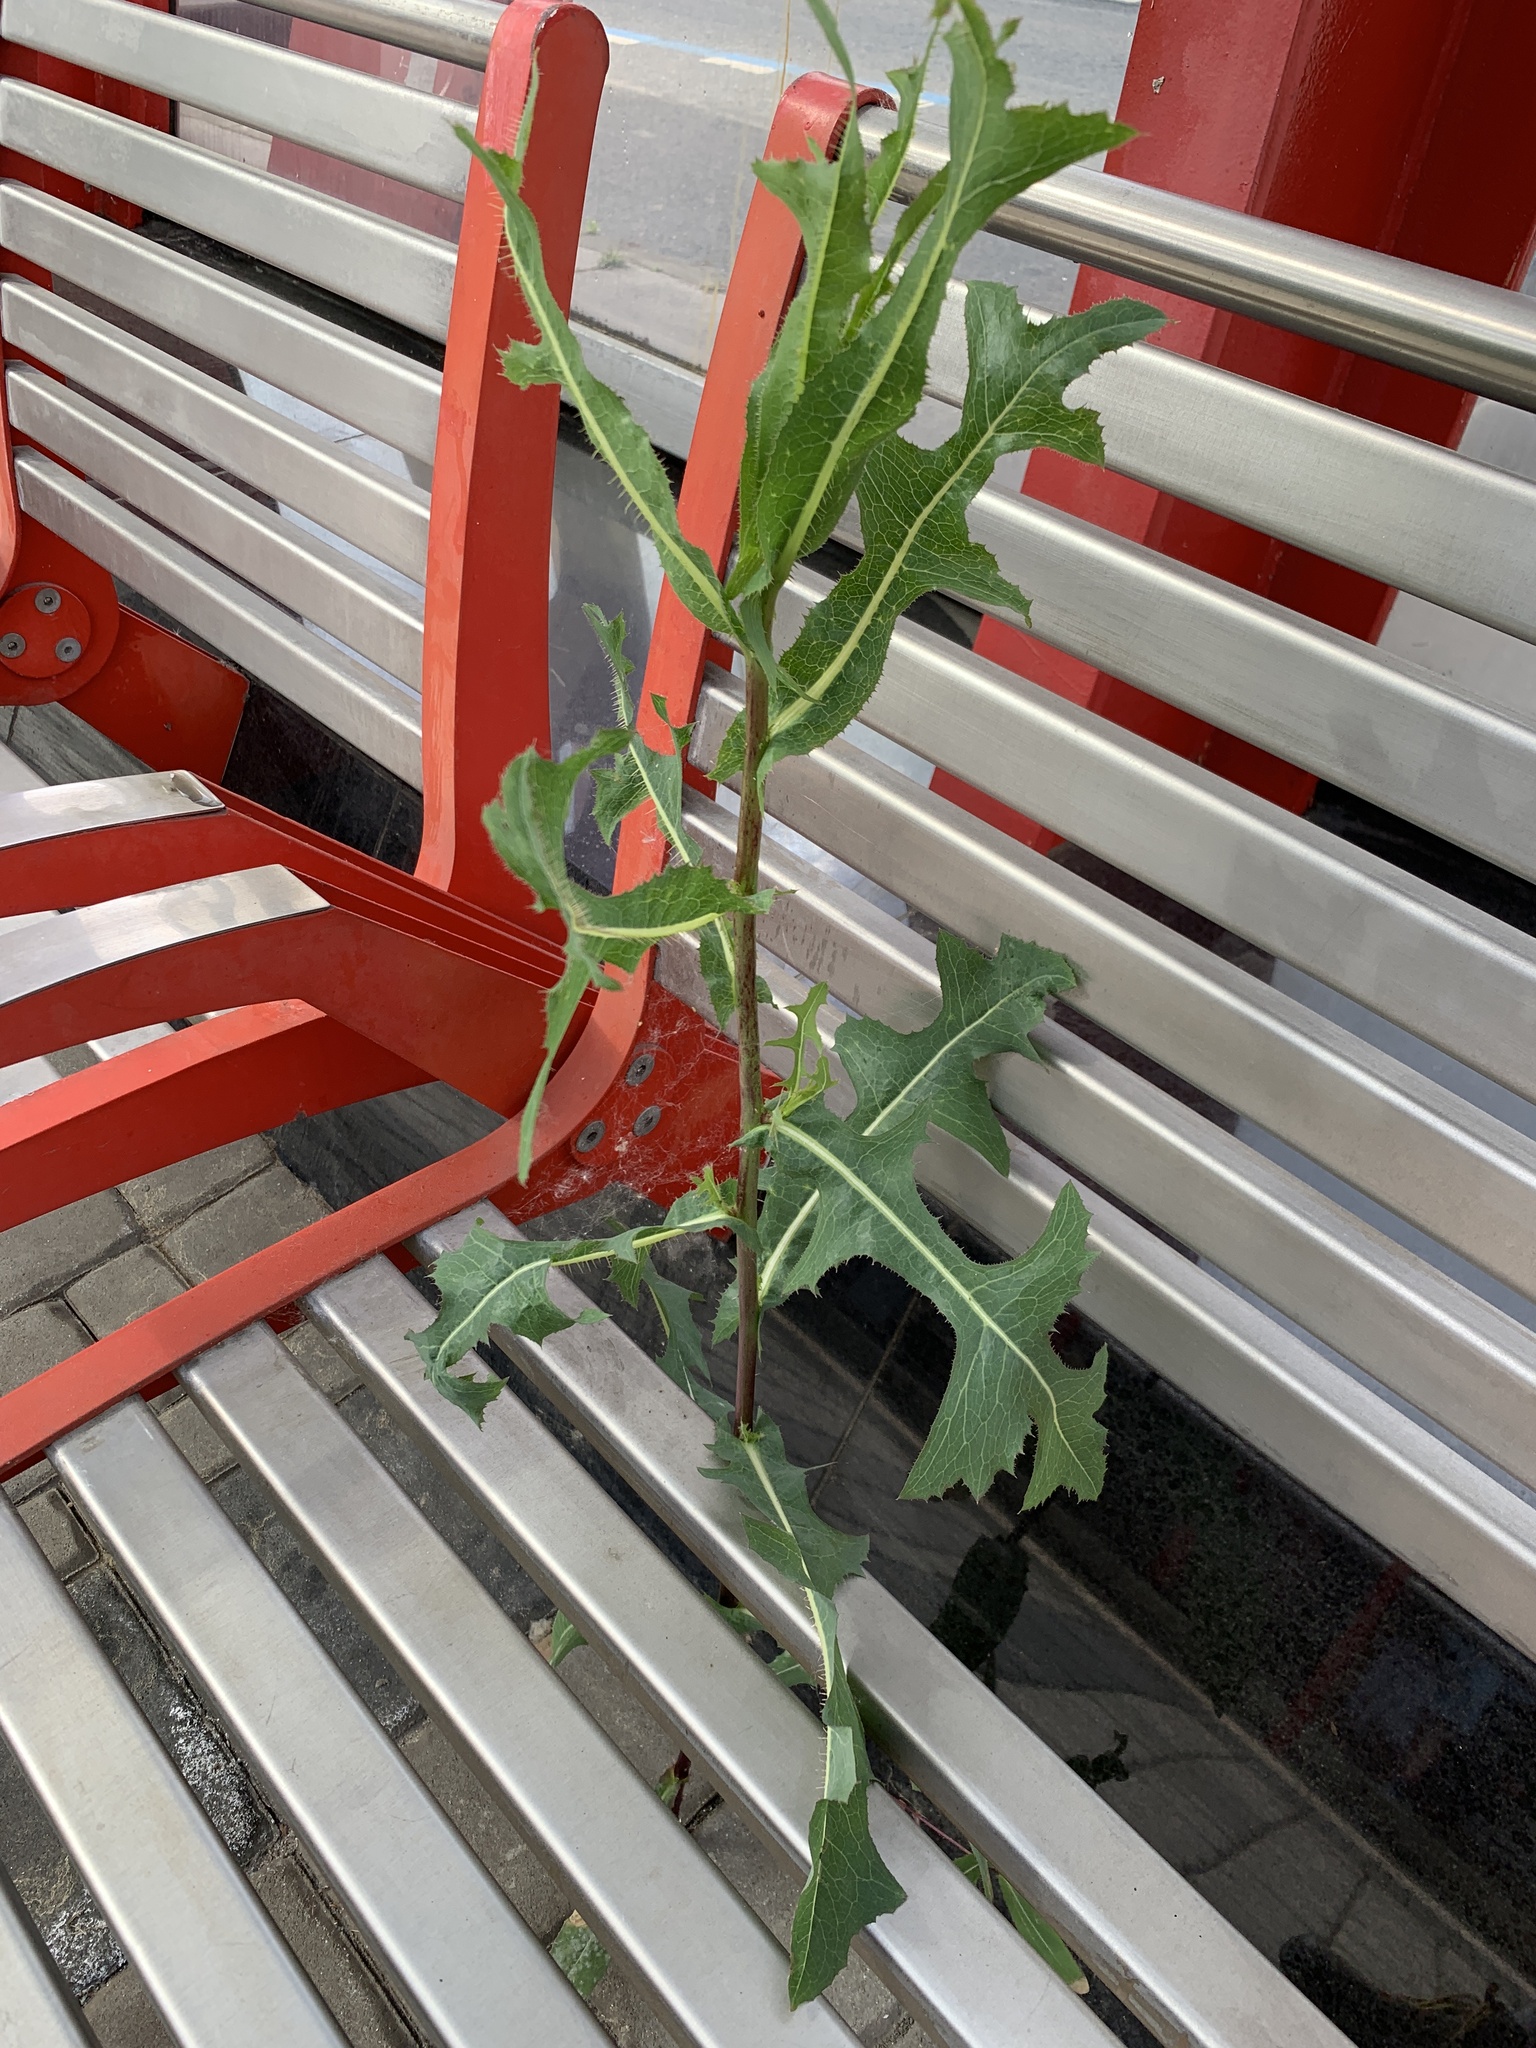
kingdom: Plantae
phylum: Tracheophyta
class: Magnoliopsida
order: Asterales
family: Asteraceae
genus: Lactuca
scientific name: Lactuca serriola
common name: Prickly lettuce
